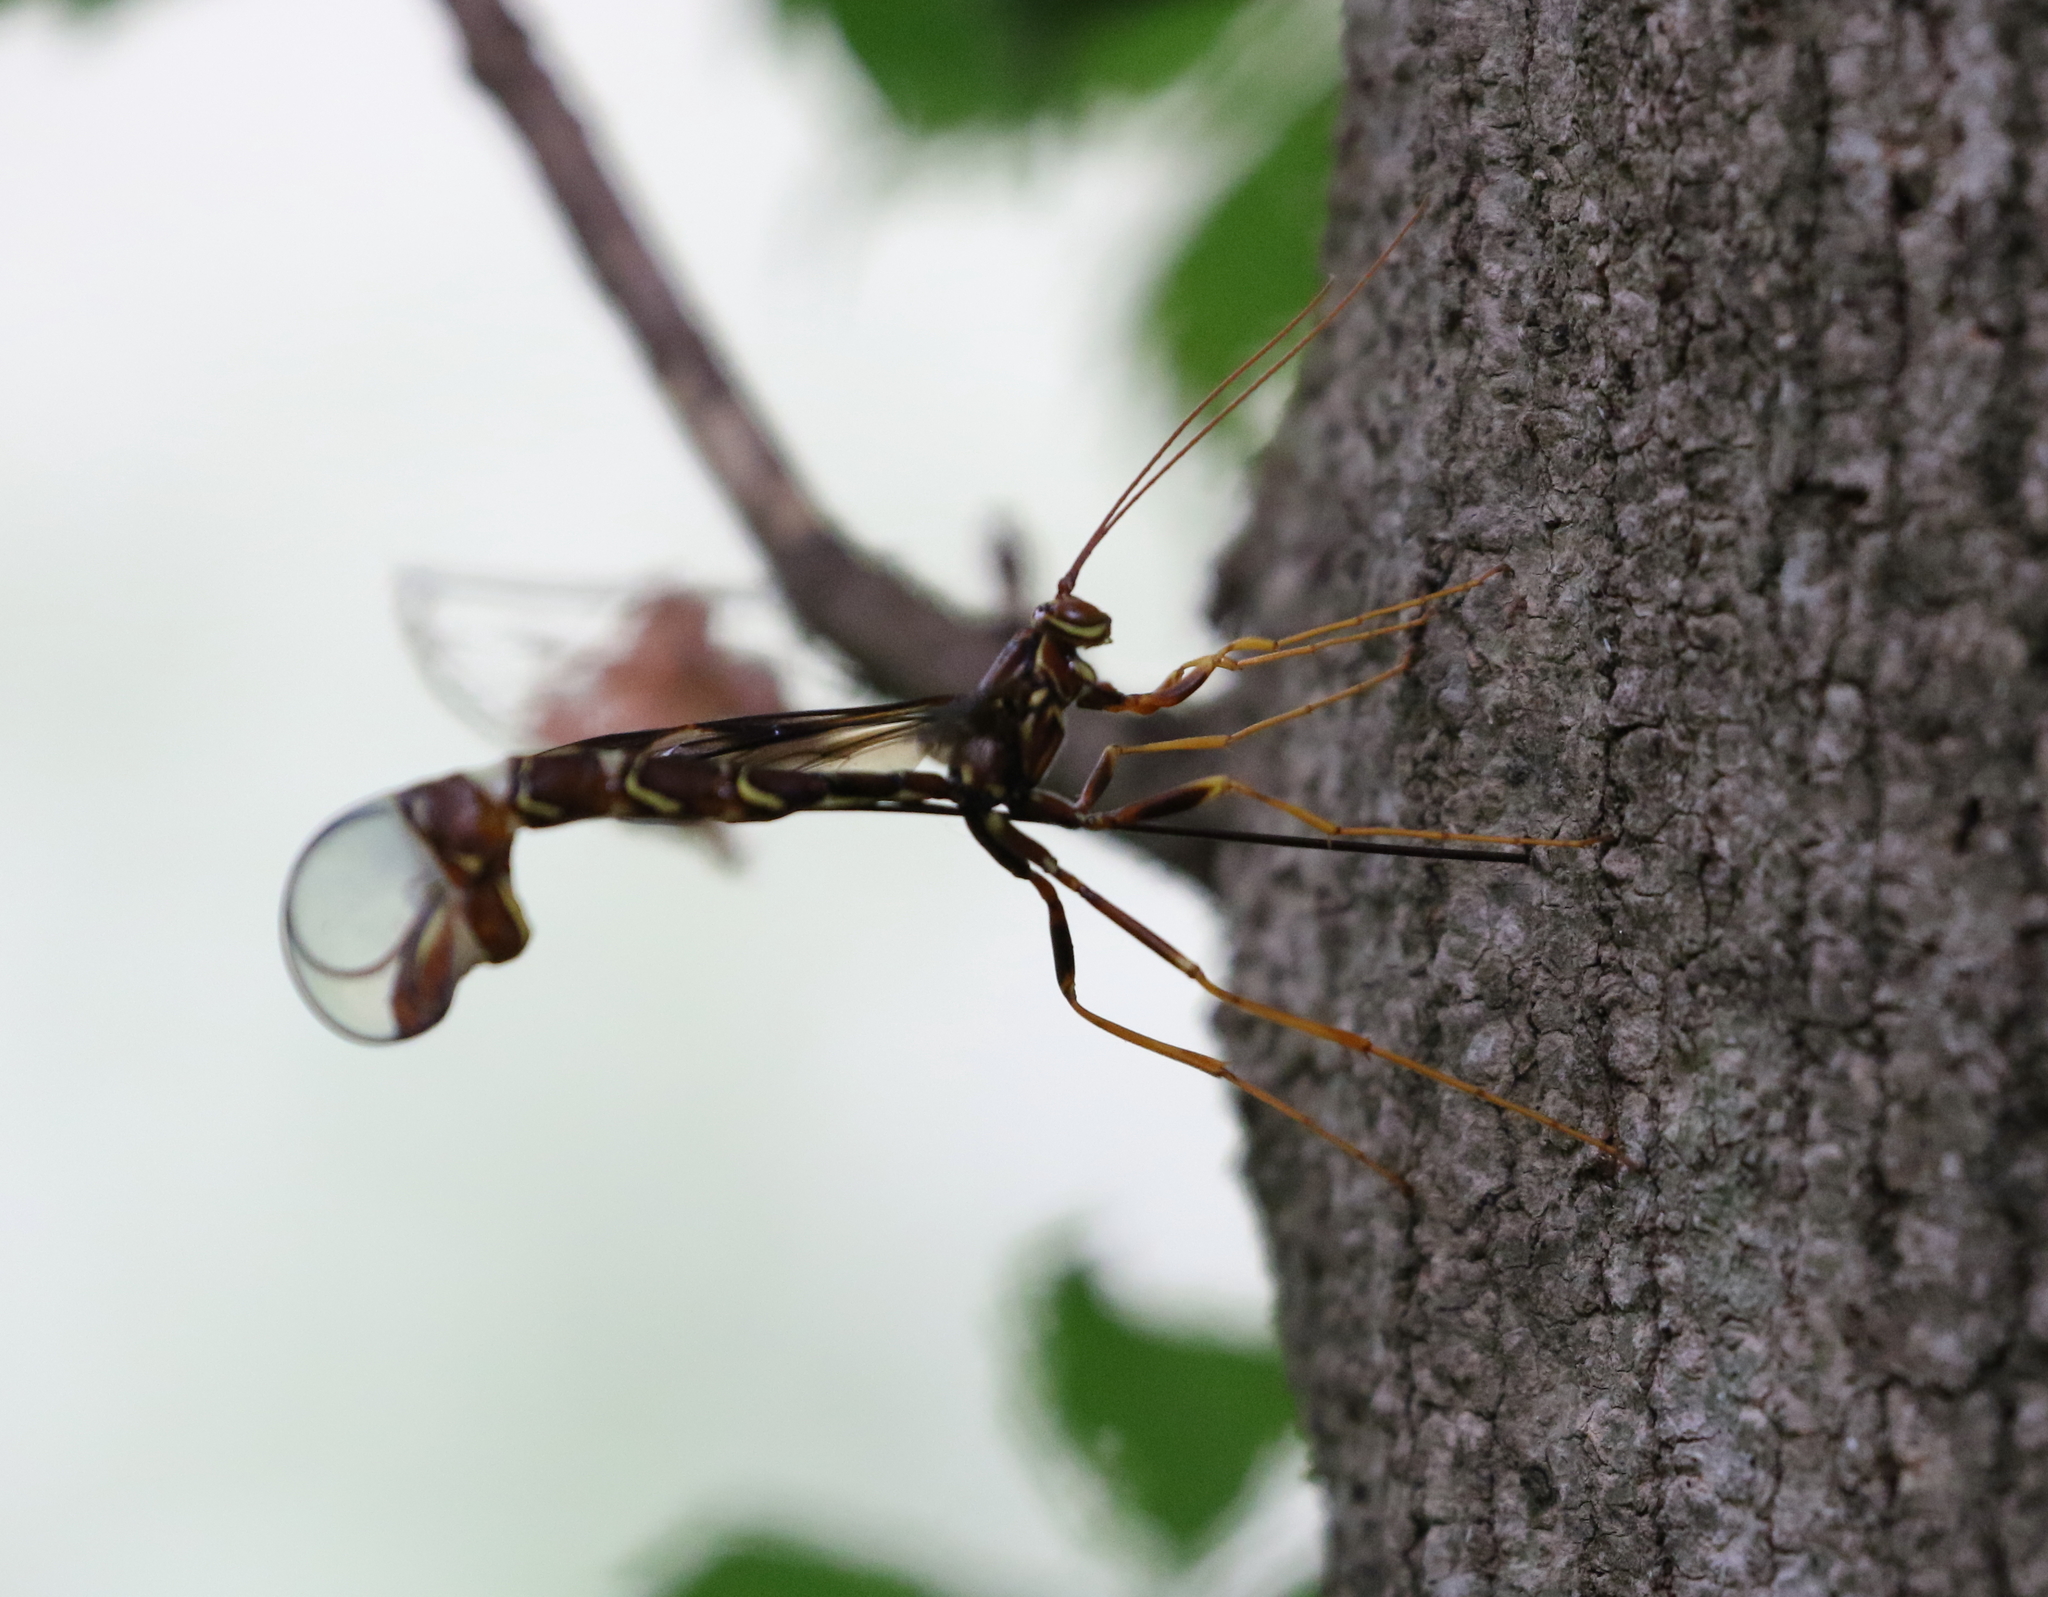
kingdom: Animalia
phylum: Arthropoda
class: Insecta
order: Hymenoptera
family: Ichneumonidae
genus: Megarhyssa
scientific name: Megarhyssa macrura
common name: Long-tailed giant ichneumonid wasp
